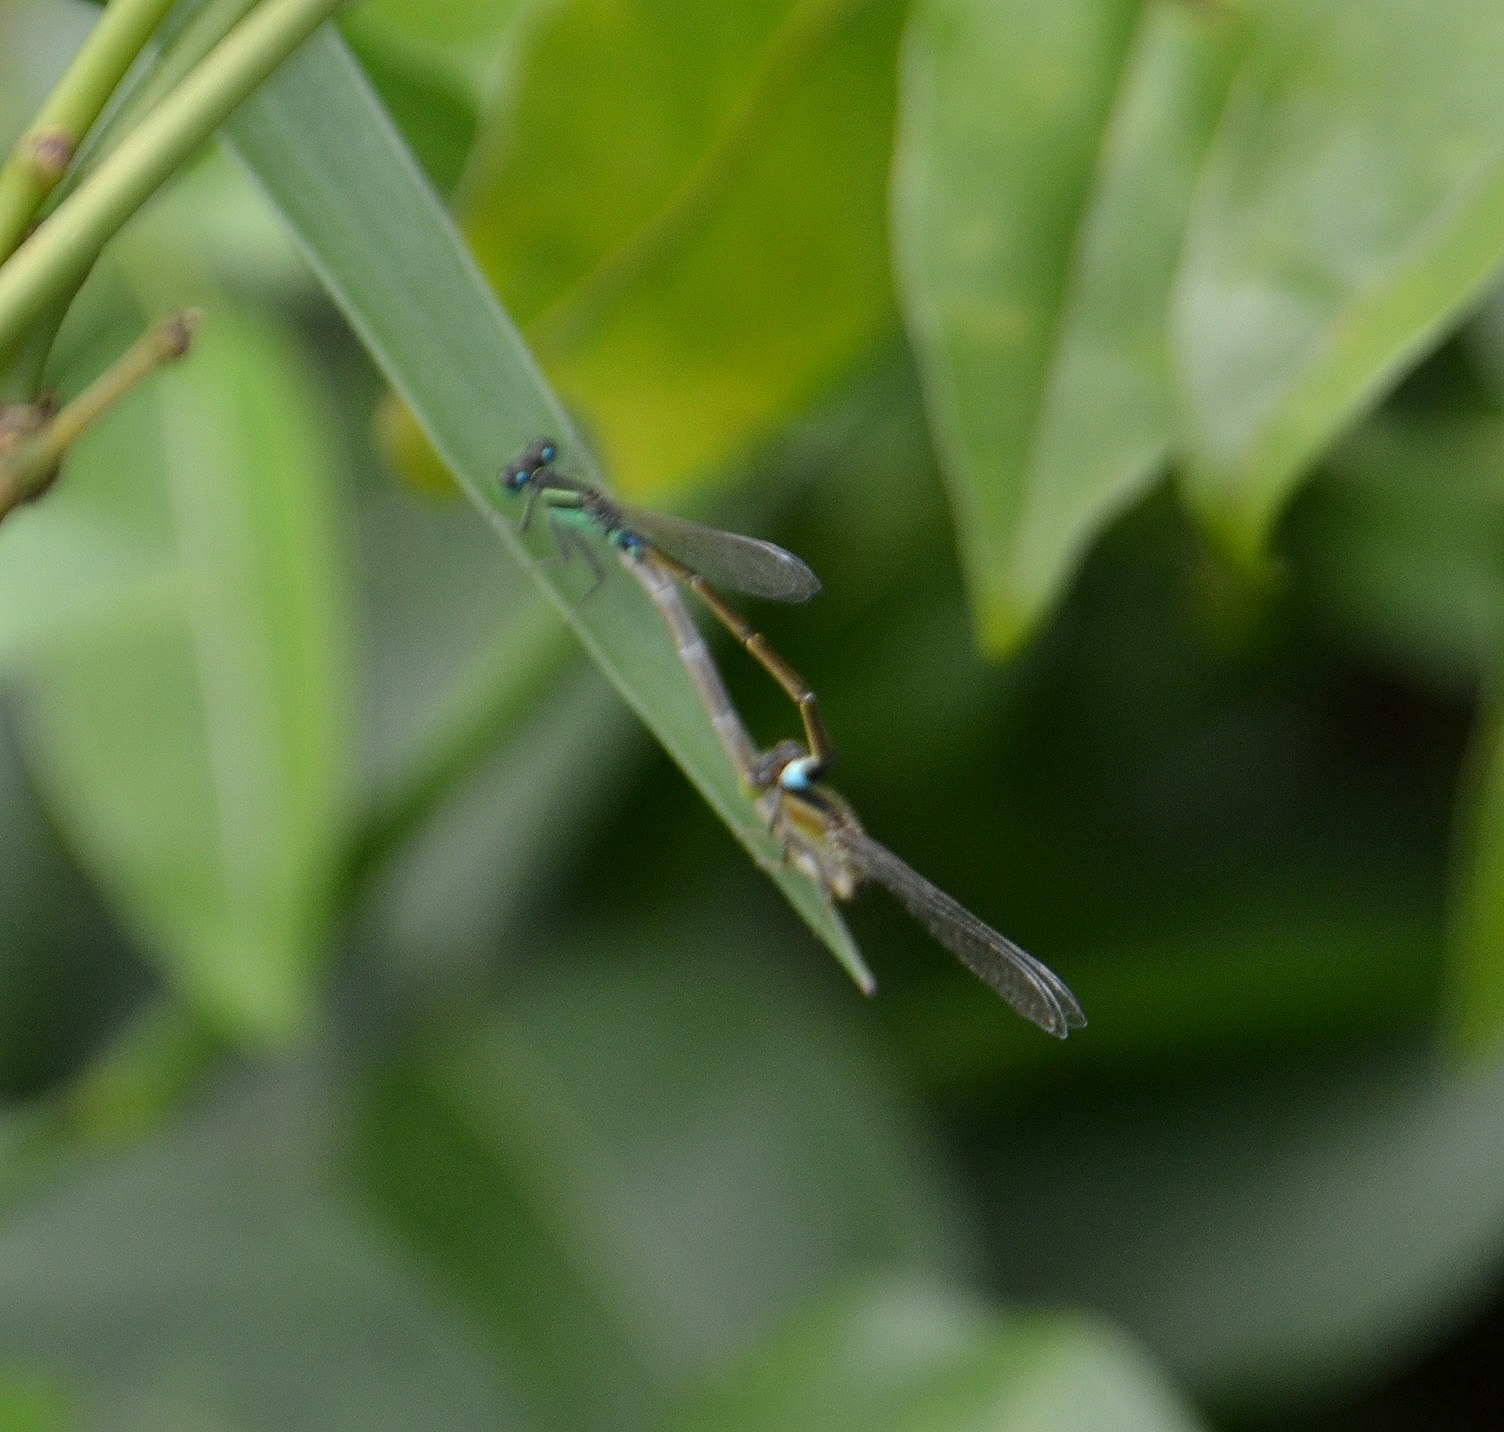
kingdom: Animalia
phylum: Arthropoda
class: Insecta
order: Odonata
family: Coenagrionidae
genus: Ischnura
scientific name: Ischnura senegalensis
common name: Tropical bluetail
